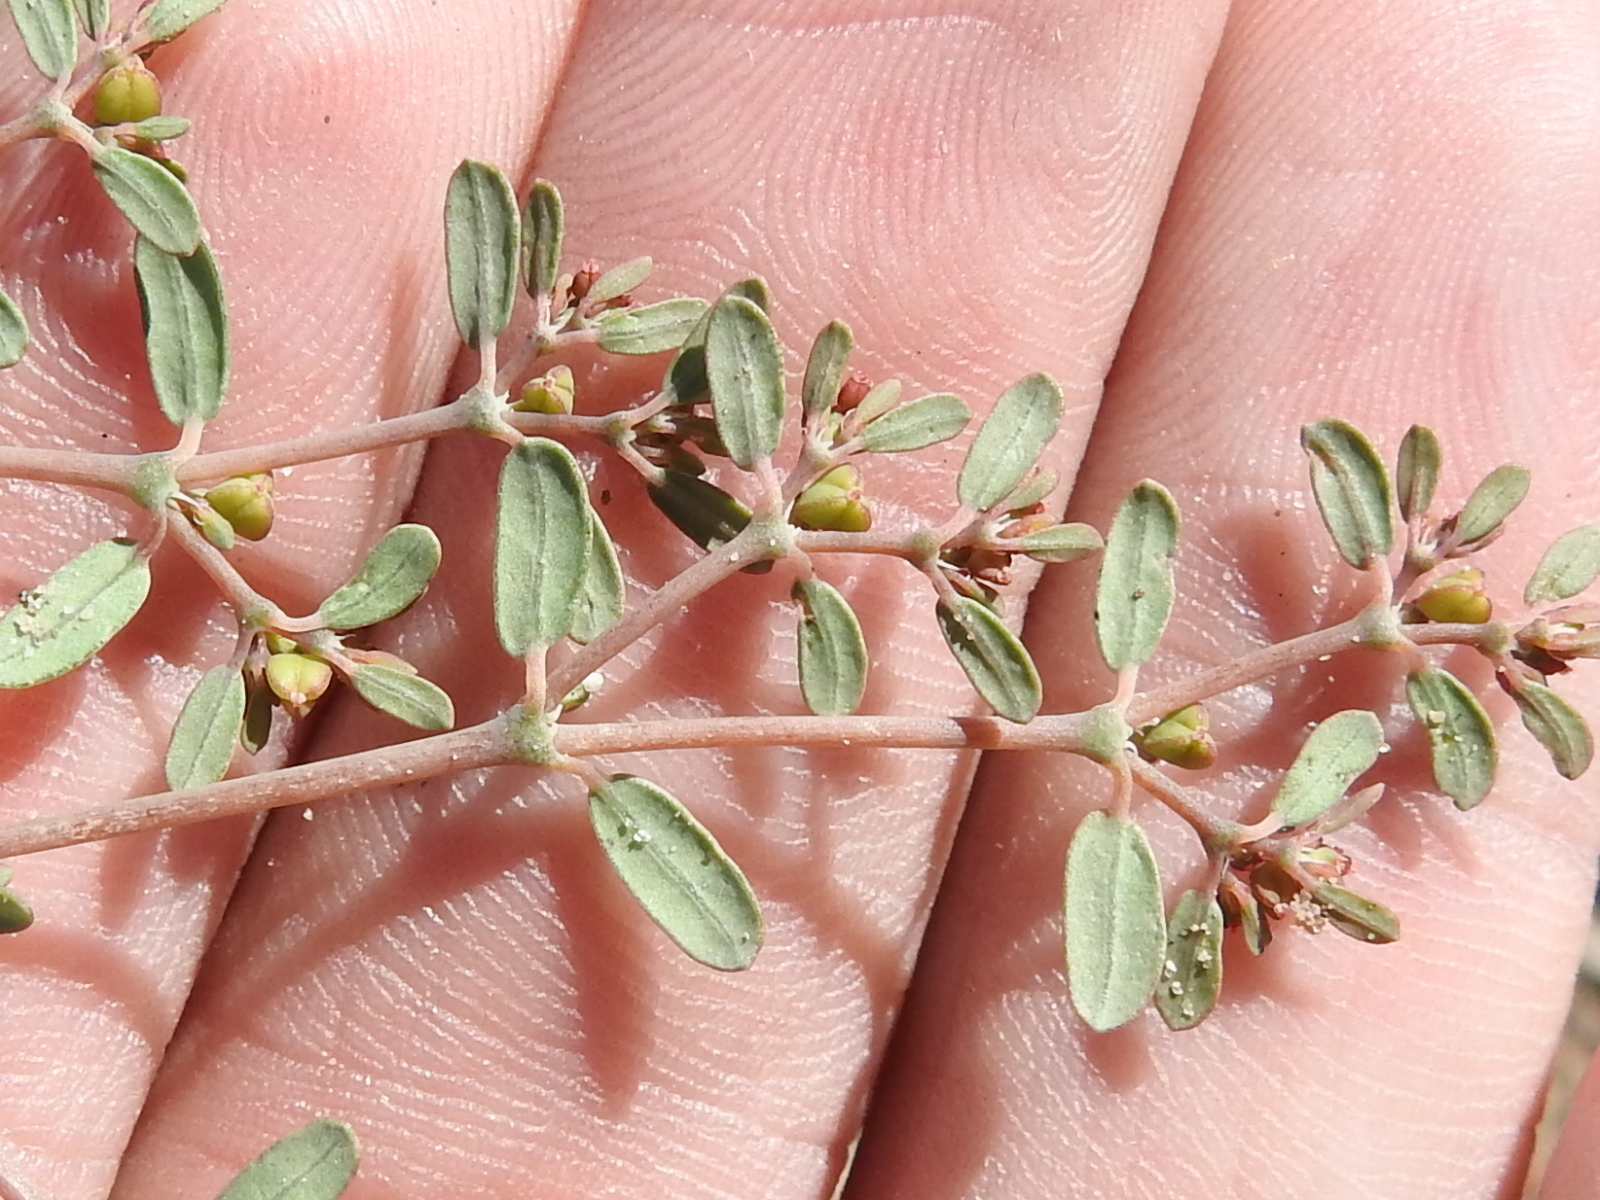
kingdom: Plantae
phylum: Tracheophyta
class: Magnoliopsida
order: Malpighiales
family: Euphorbiaceae
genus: Euphorbia
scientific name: Euphorbia golondrina
